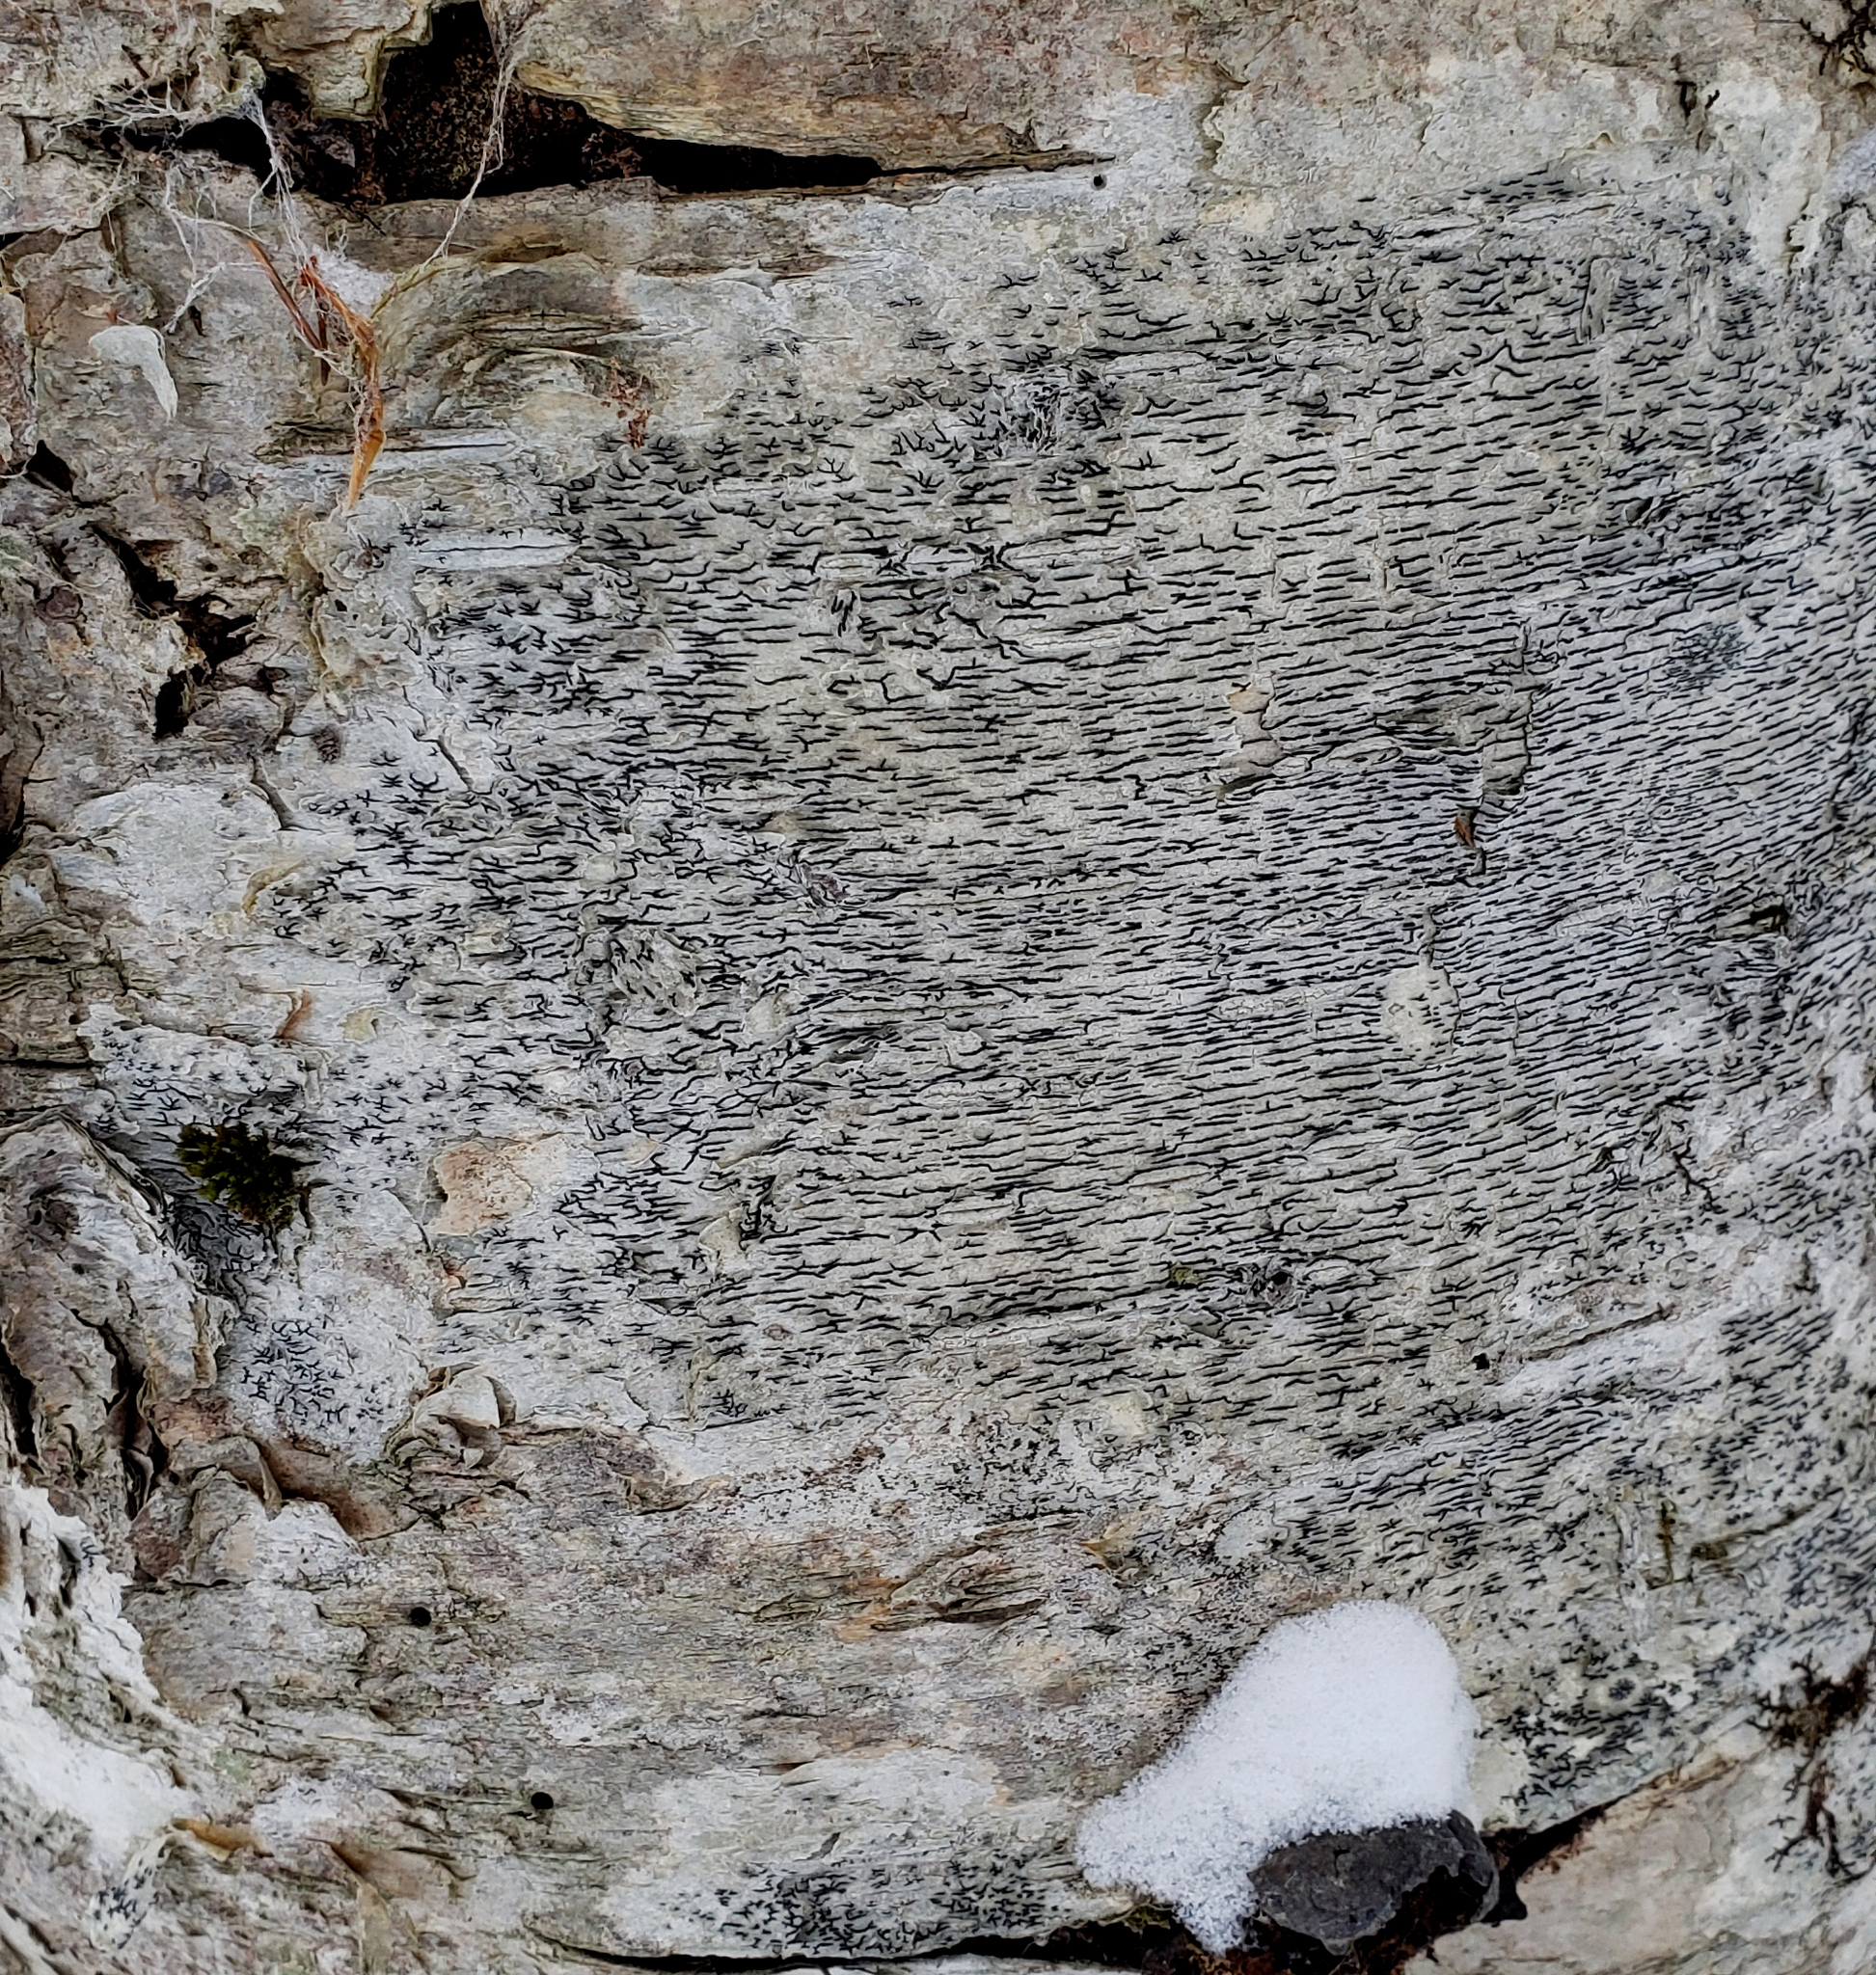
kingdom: Fungi
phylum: Ascomycota
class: Lecanoromycetes
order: Ostropales
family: Graphidaceae
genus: Graphis
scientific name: Graphis scripta
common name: Script lichen
